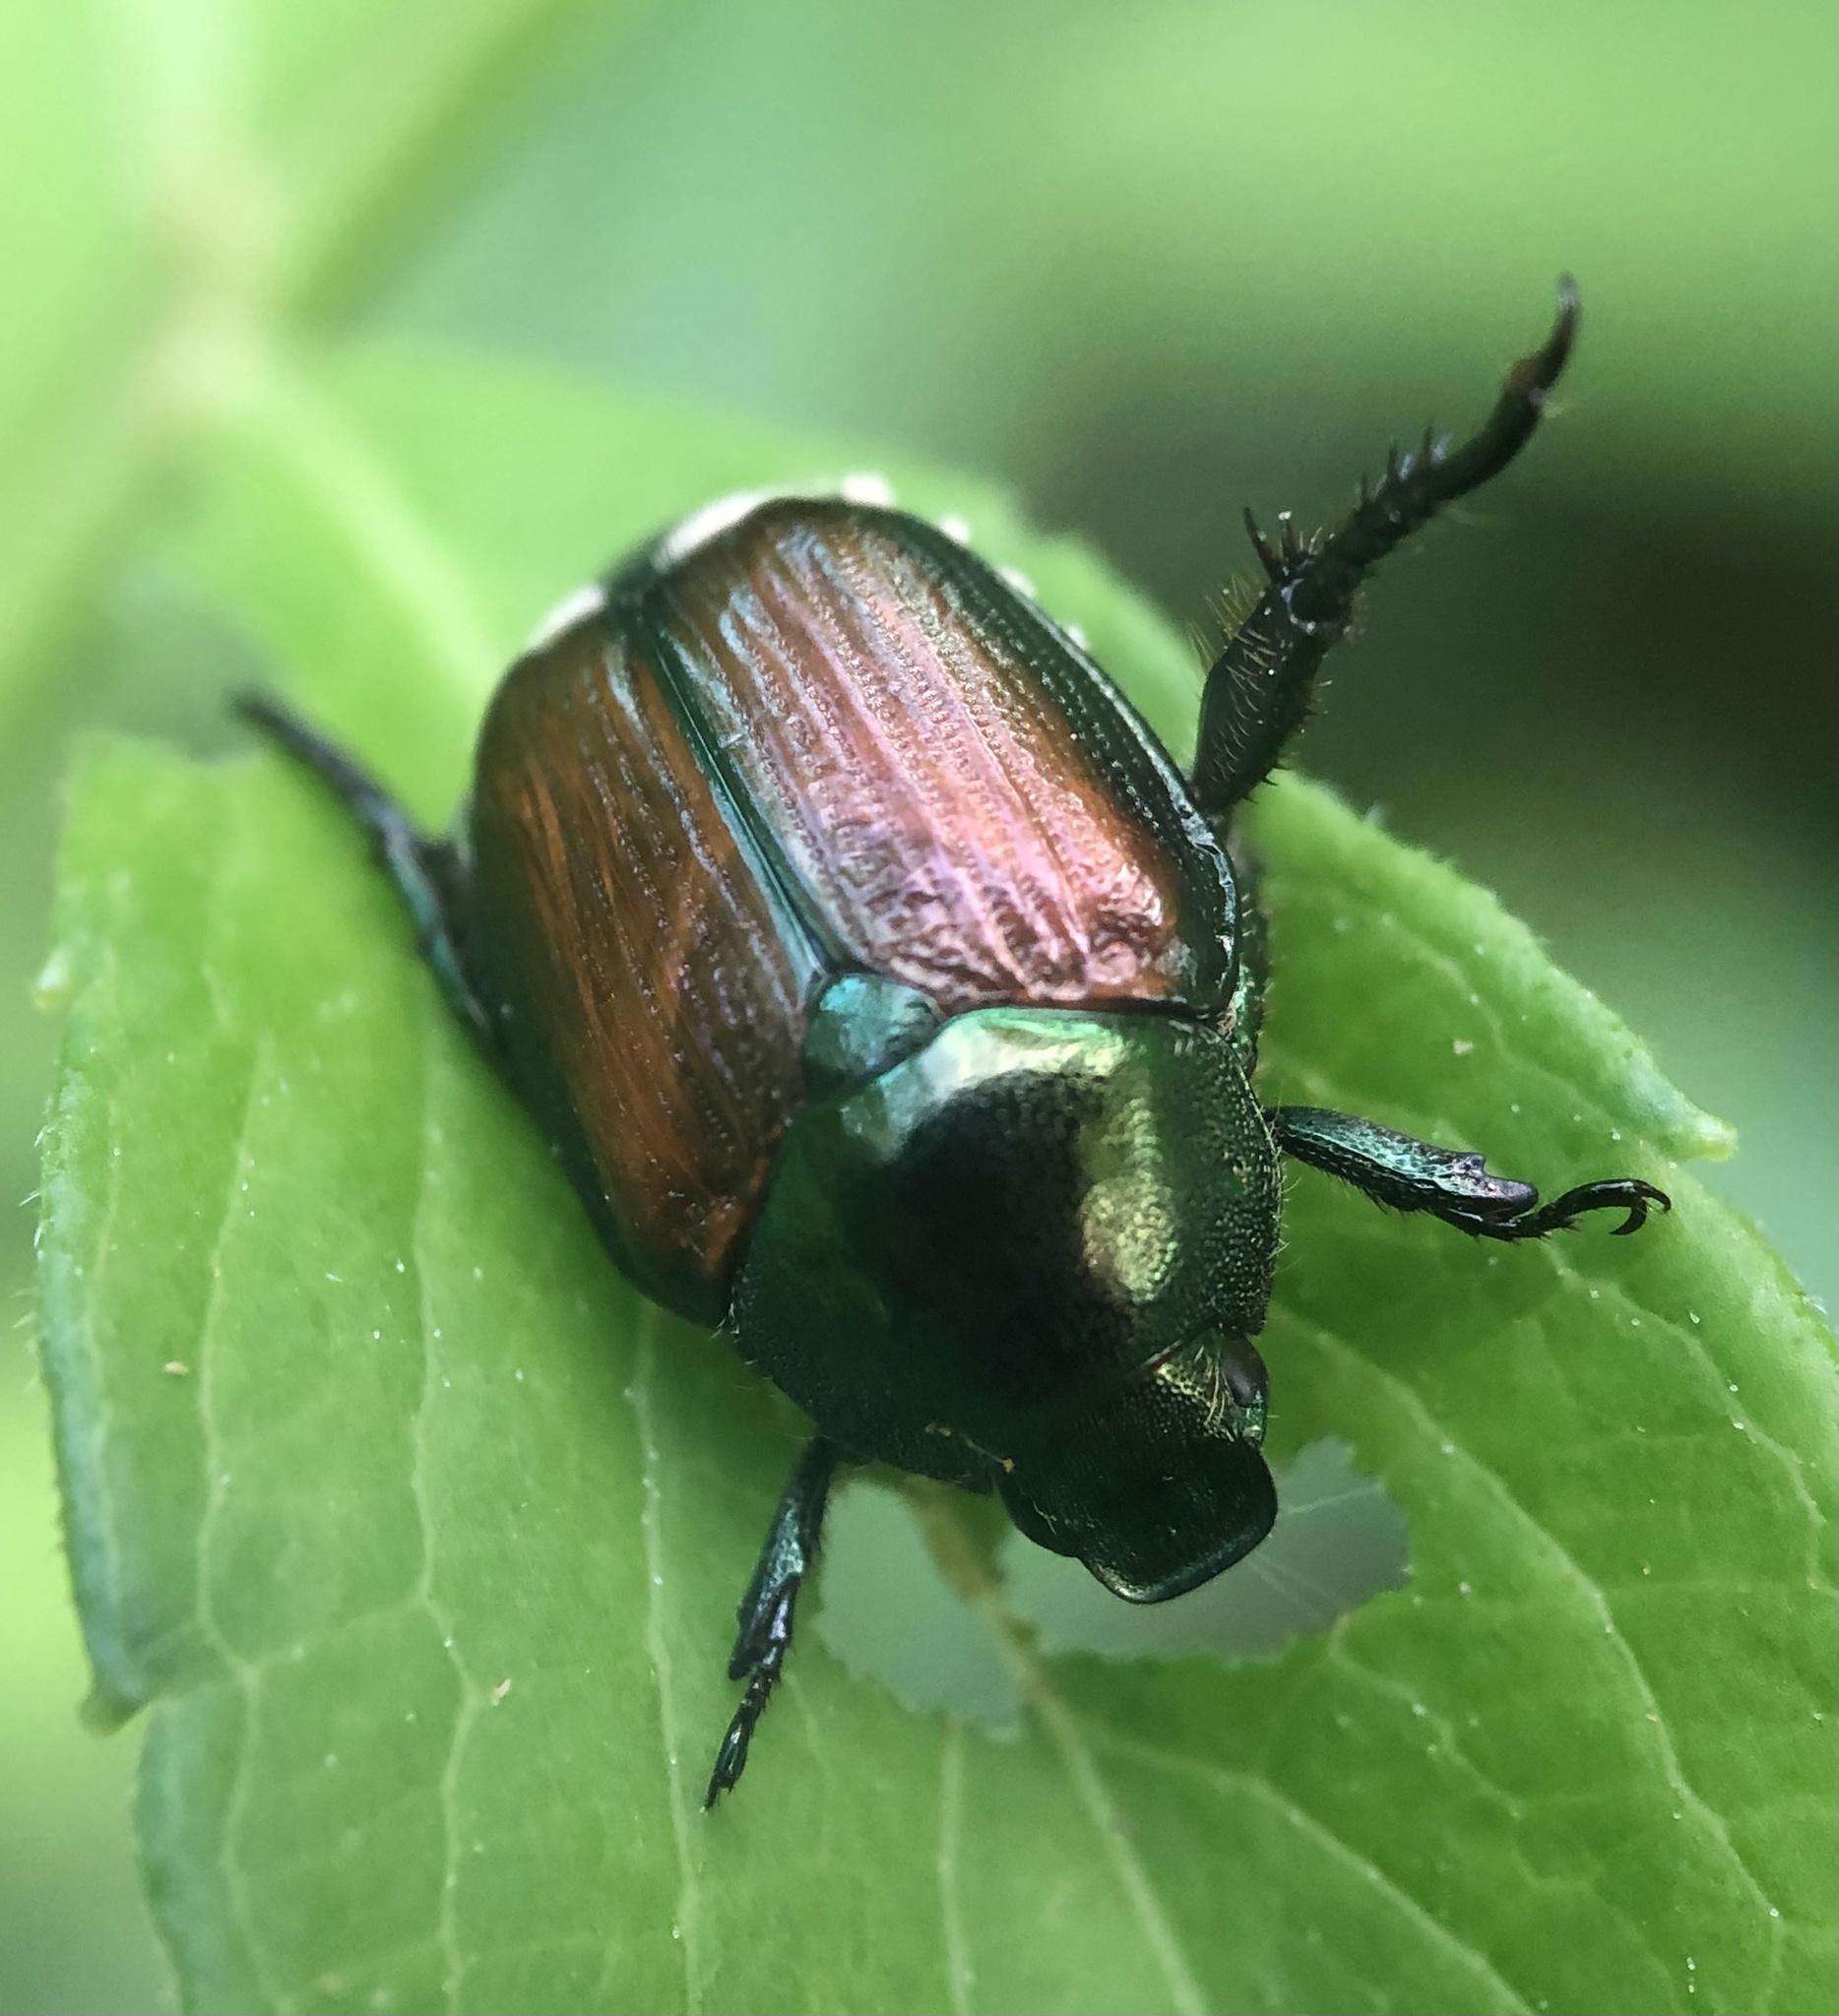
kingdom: Animalia
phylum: Arthropoda
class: Insecta
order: Coleoptera
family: Scarabaeidae
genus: Popillia
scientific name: Popillia japonica
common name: Japanese beetle
